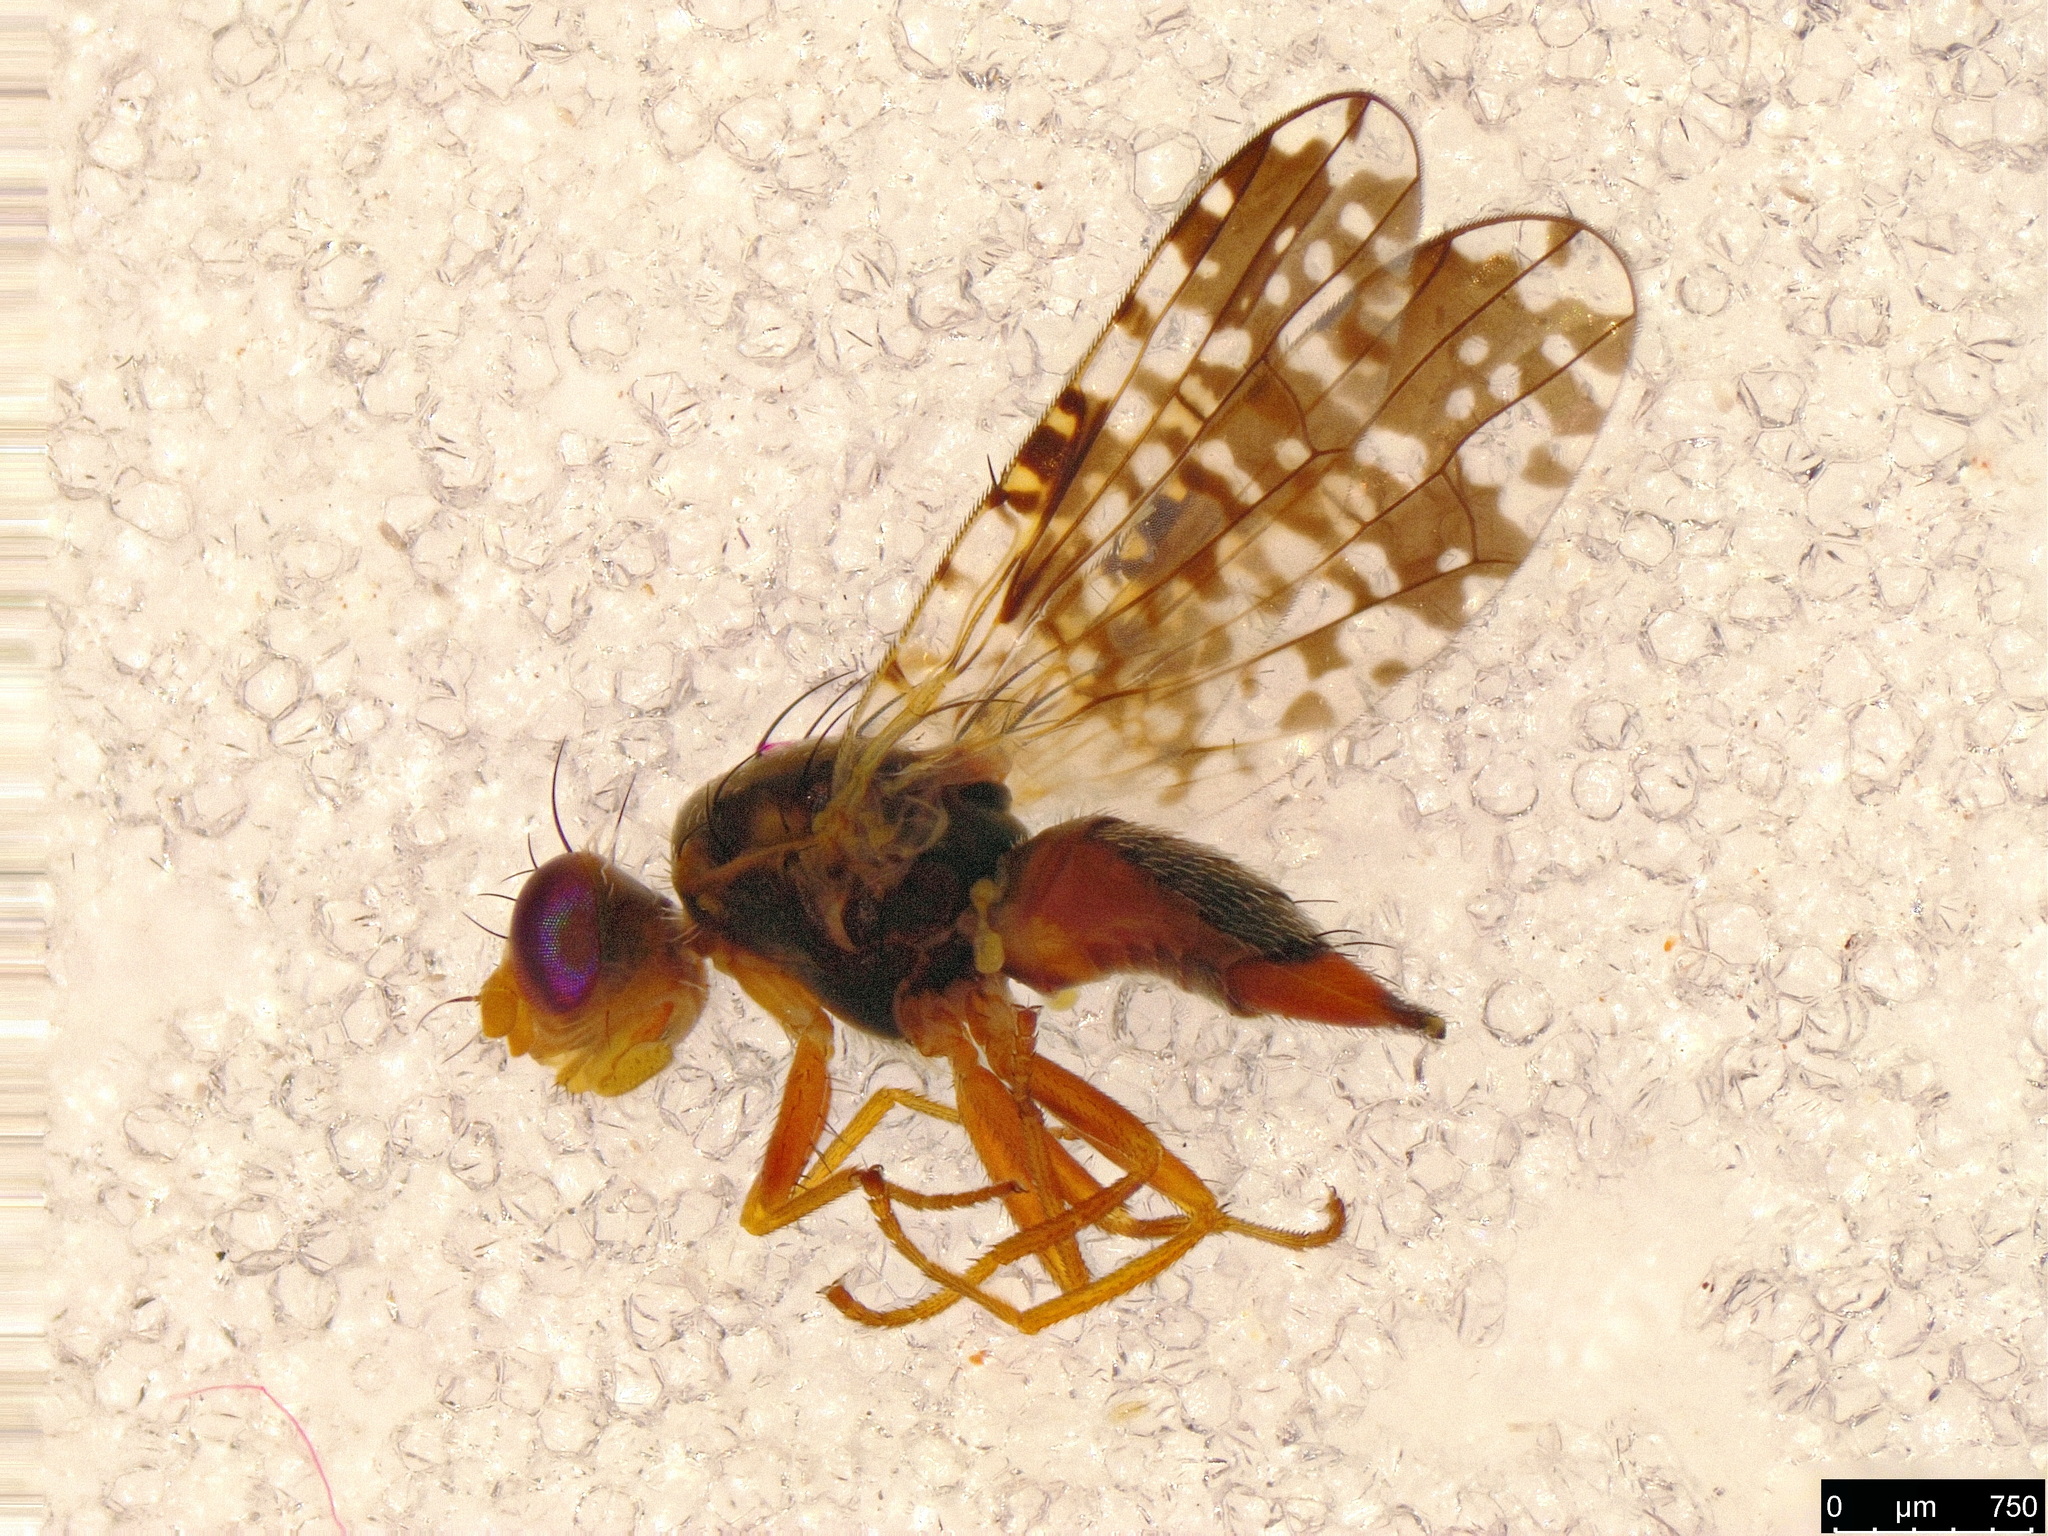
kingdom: Animalia
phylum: Arthropoda
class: Insecta
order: Diptera
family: Tephritidae
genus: Austrotephritis
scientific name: Austrotephritis
